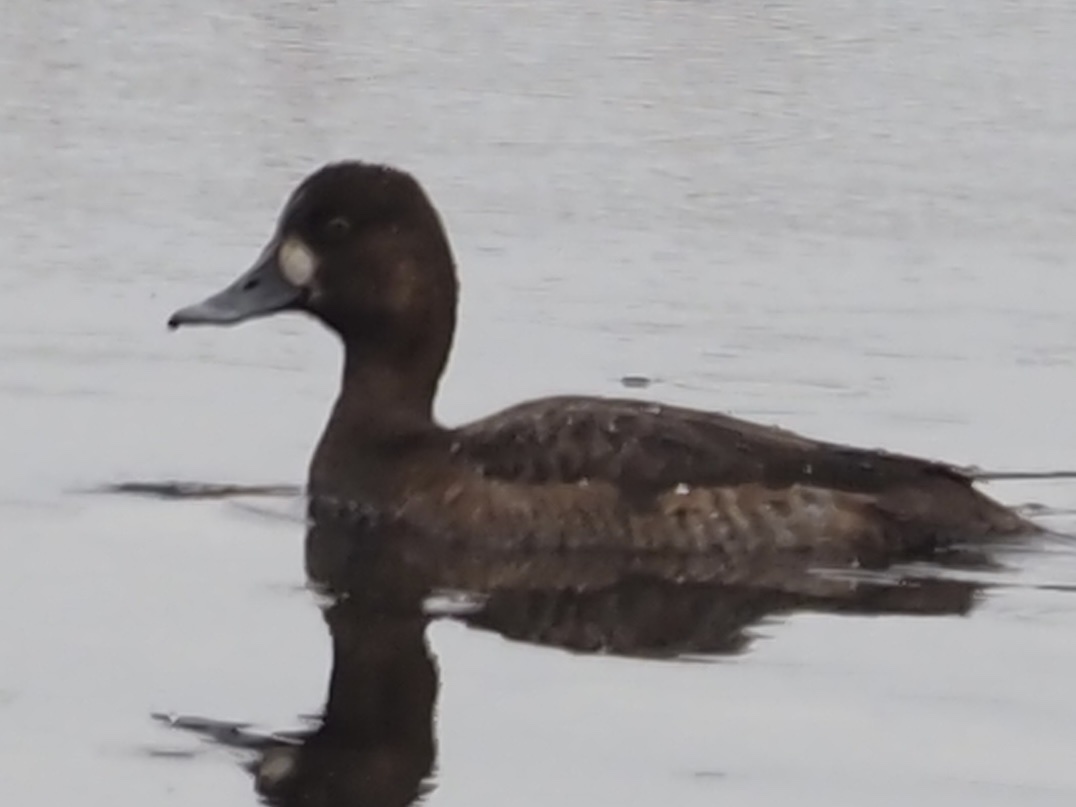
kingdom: Animalia
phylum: Chordata
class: Aves
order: Anseriformes
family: Anatidae
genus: Aythya
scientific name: Aythya affinis
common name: Lesser scaup
